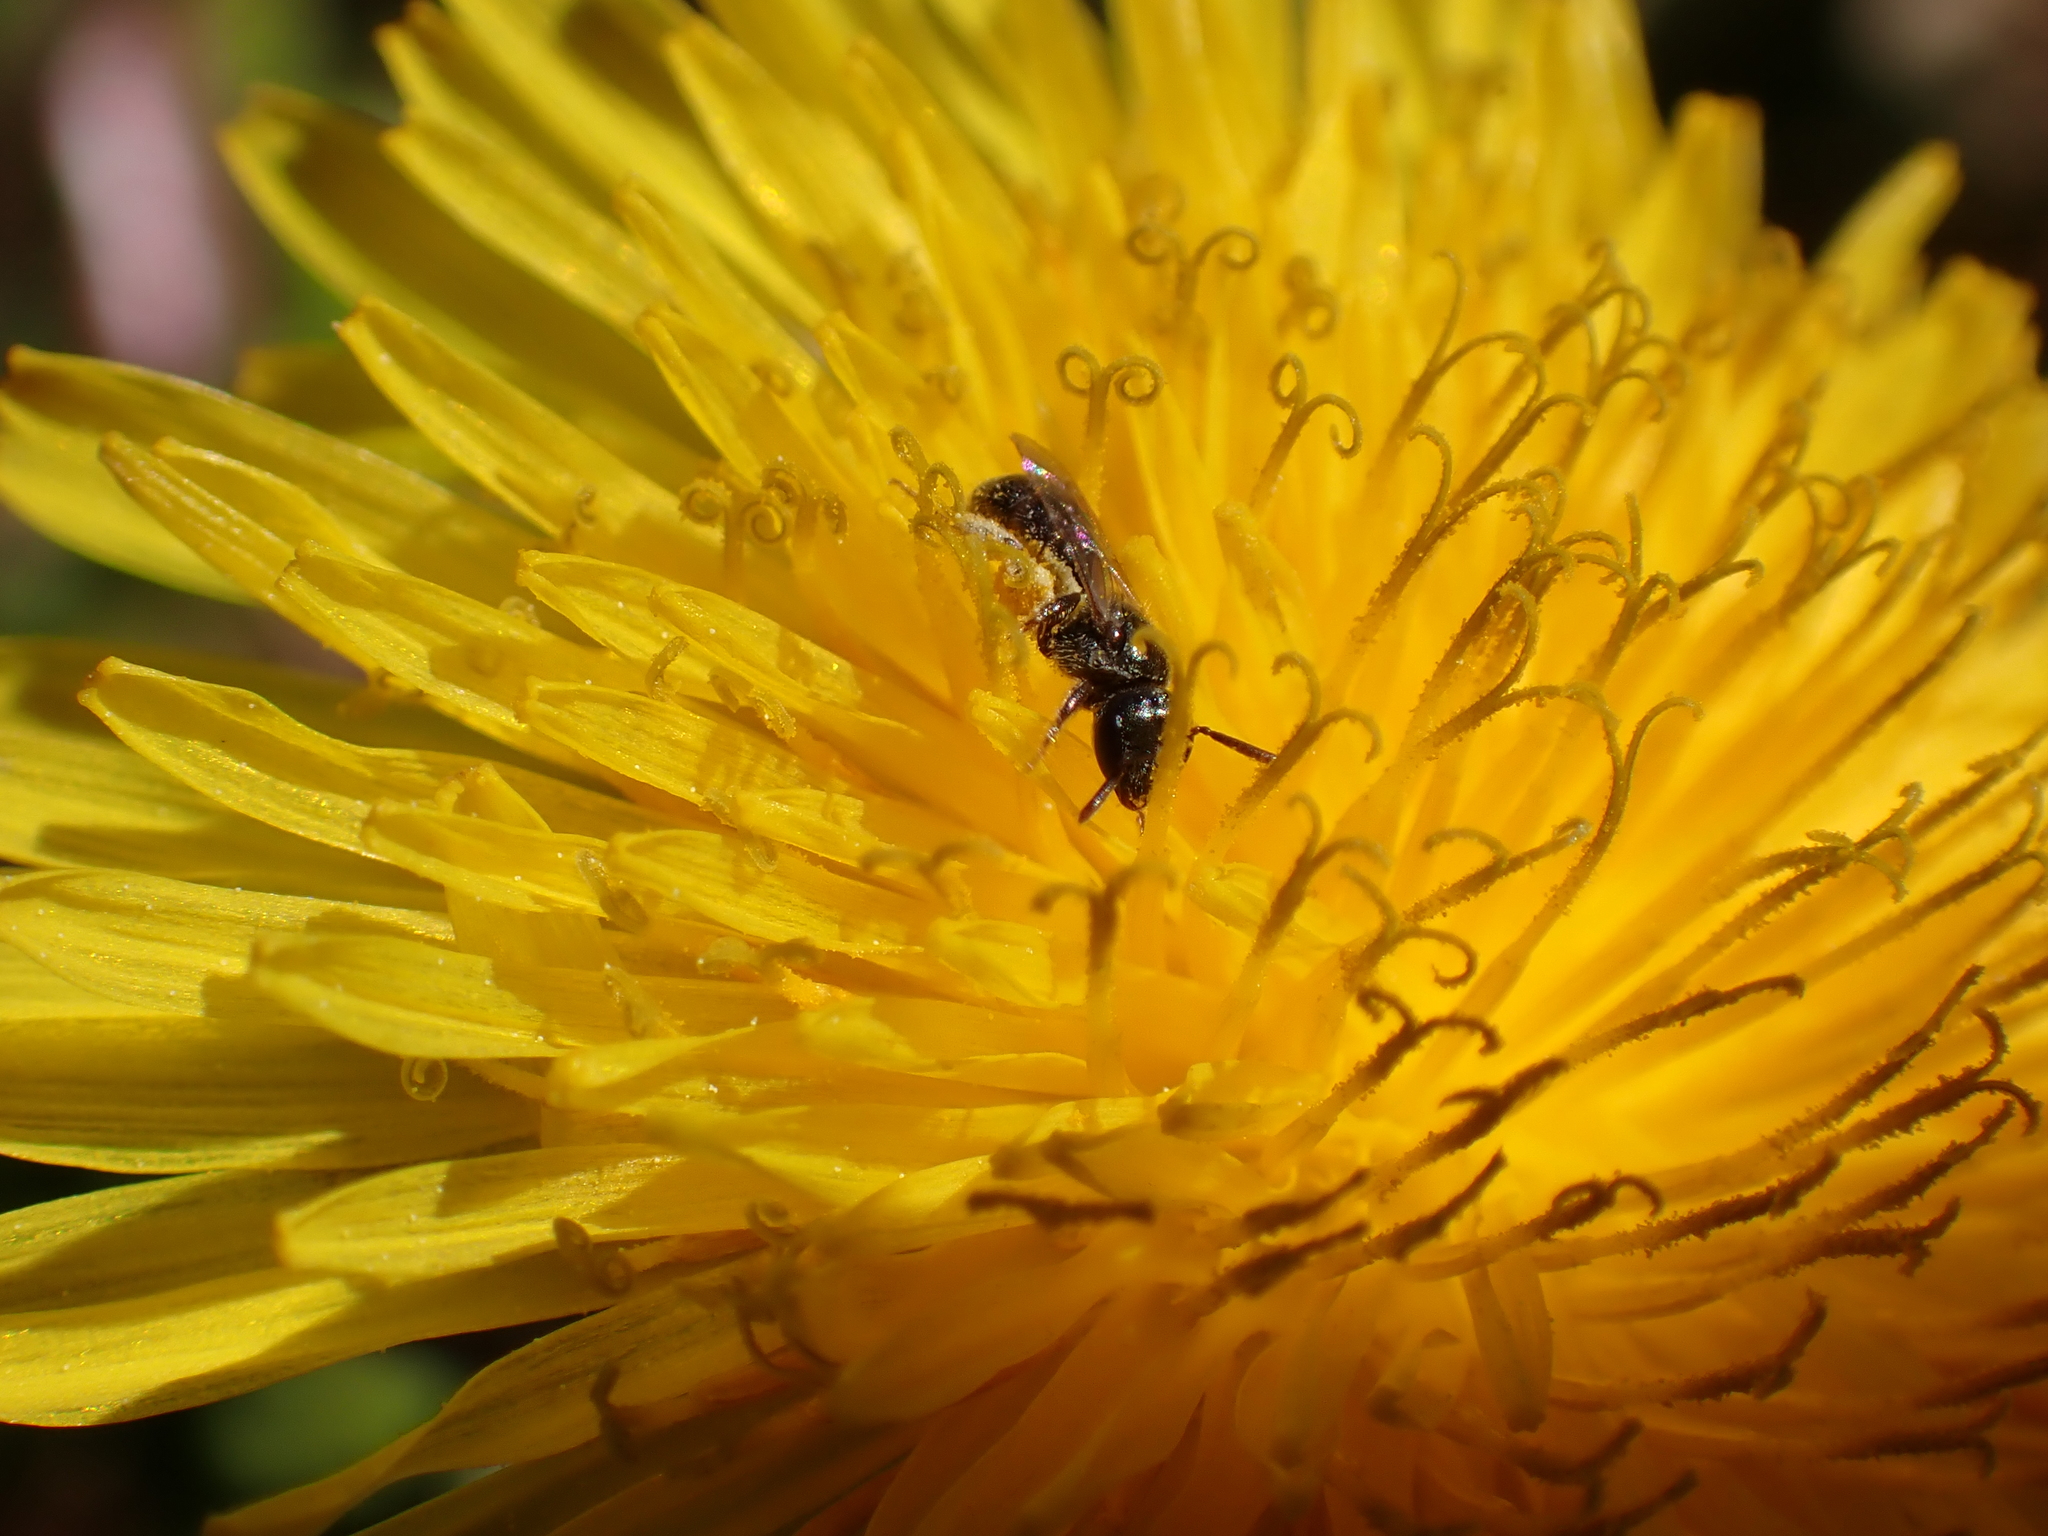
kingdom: Animalia
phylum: Arthropoda
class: Insecta
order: Hymenoptera
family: Halictidae
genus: Lasioglossum
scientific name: Lasioglossum imitatum
